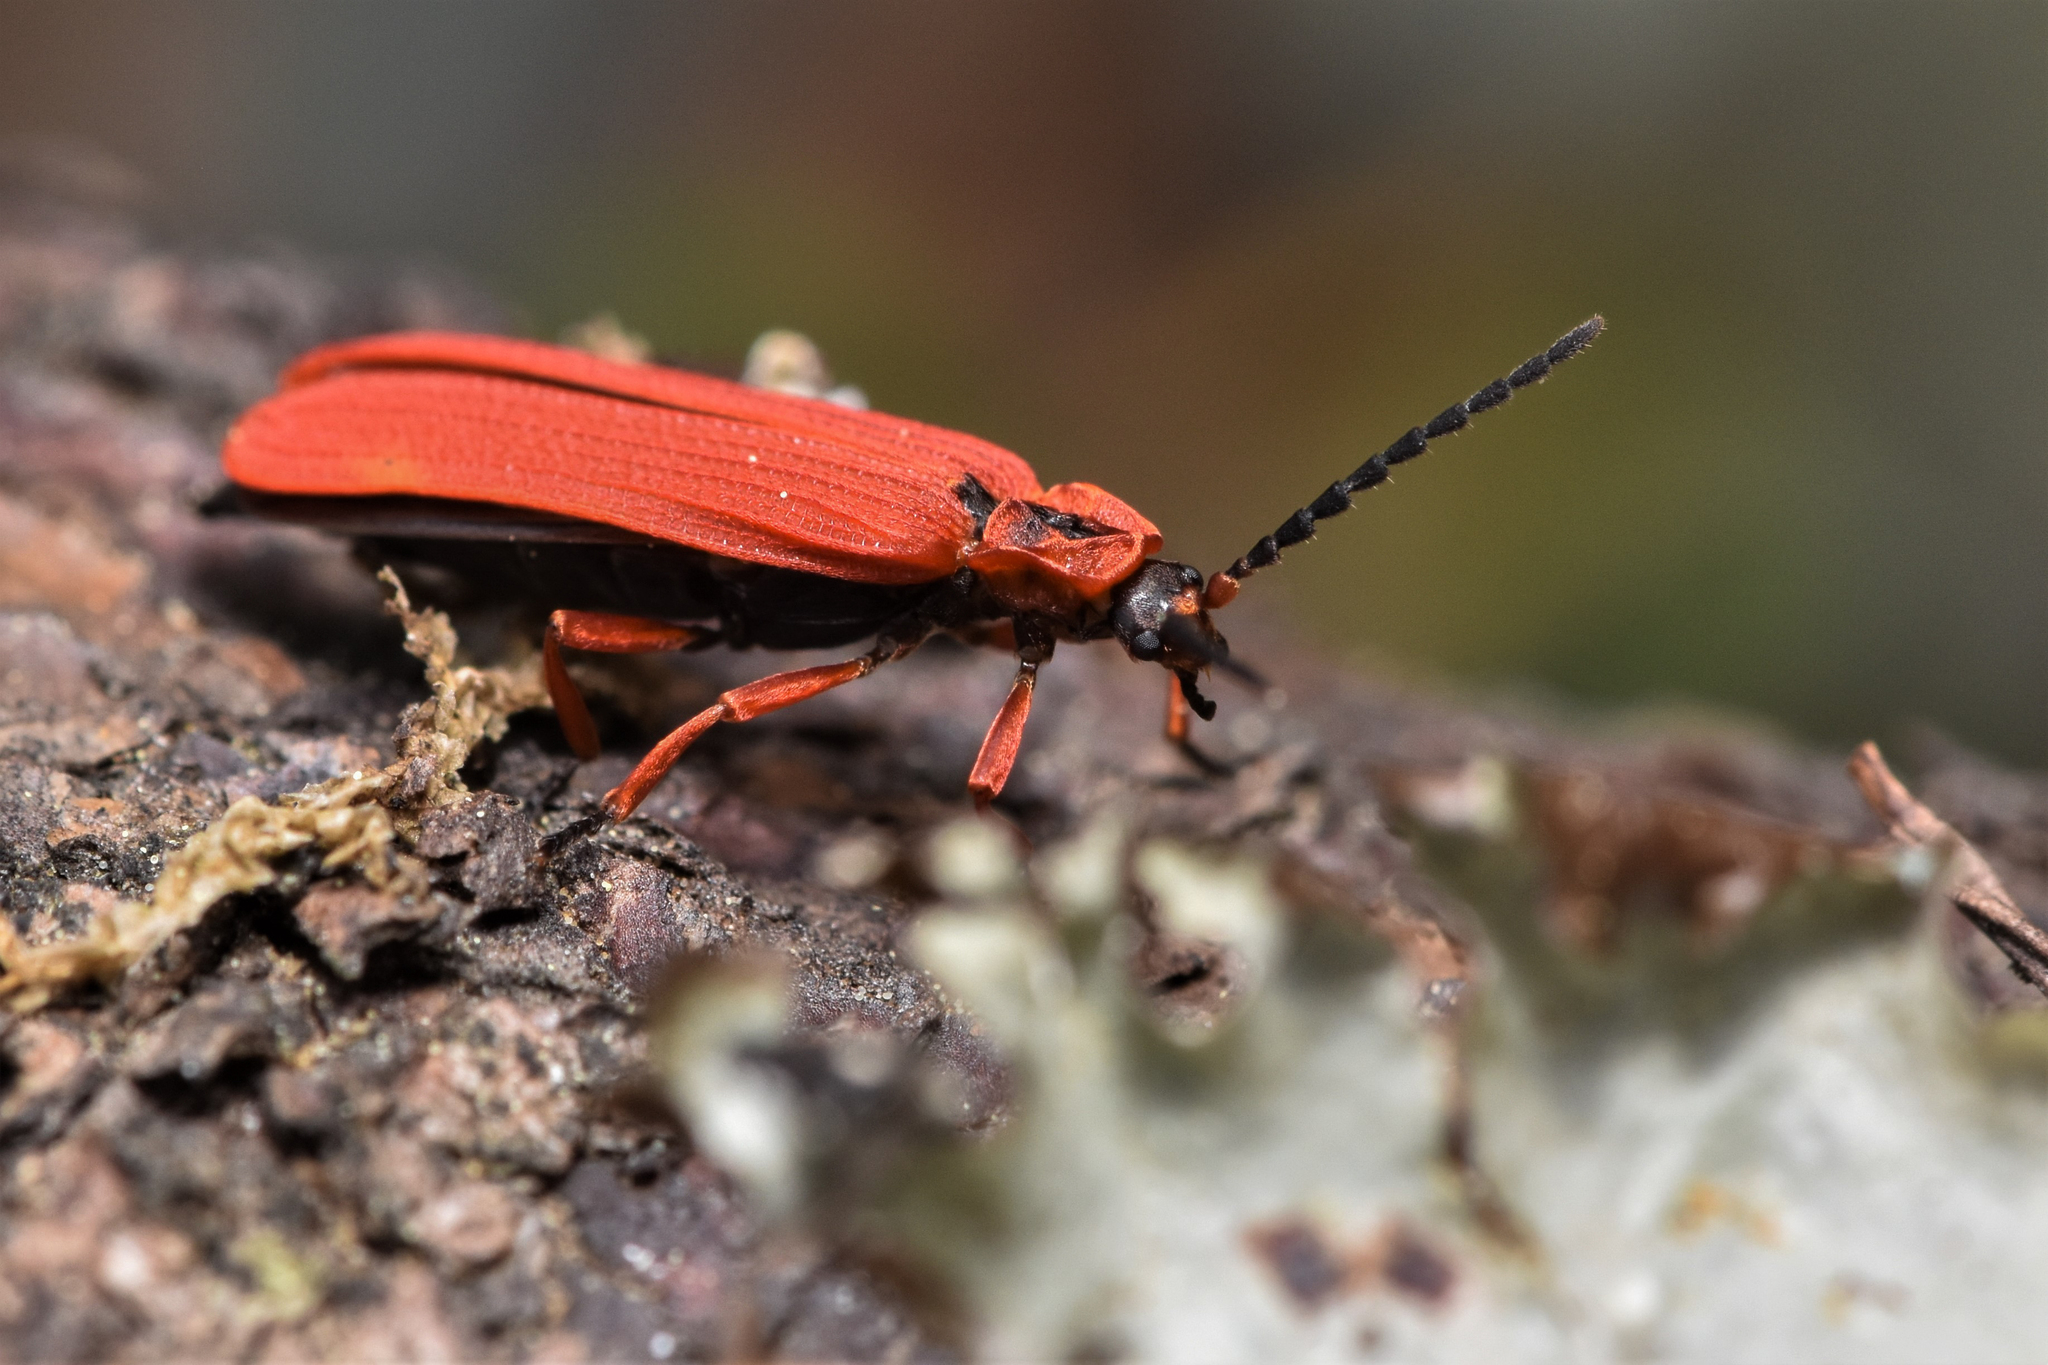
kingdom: Animalia
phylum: Arthropoda
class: Insecta
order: Coleoptera
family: Lycidae
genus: Dictyoptera
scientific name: Dictyoptera simplicipes
